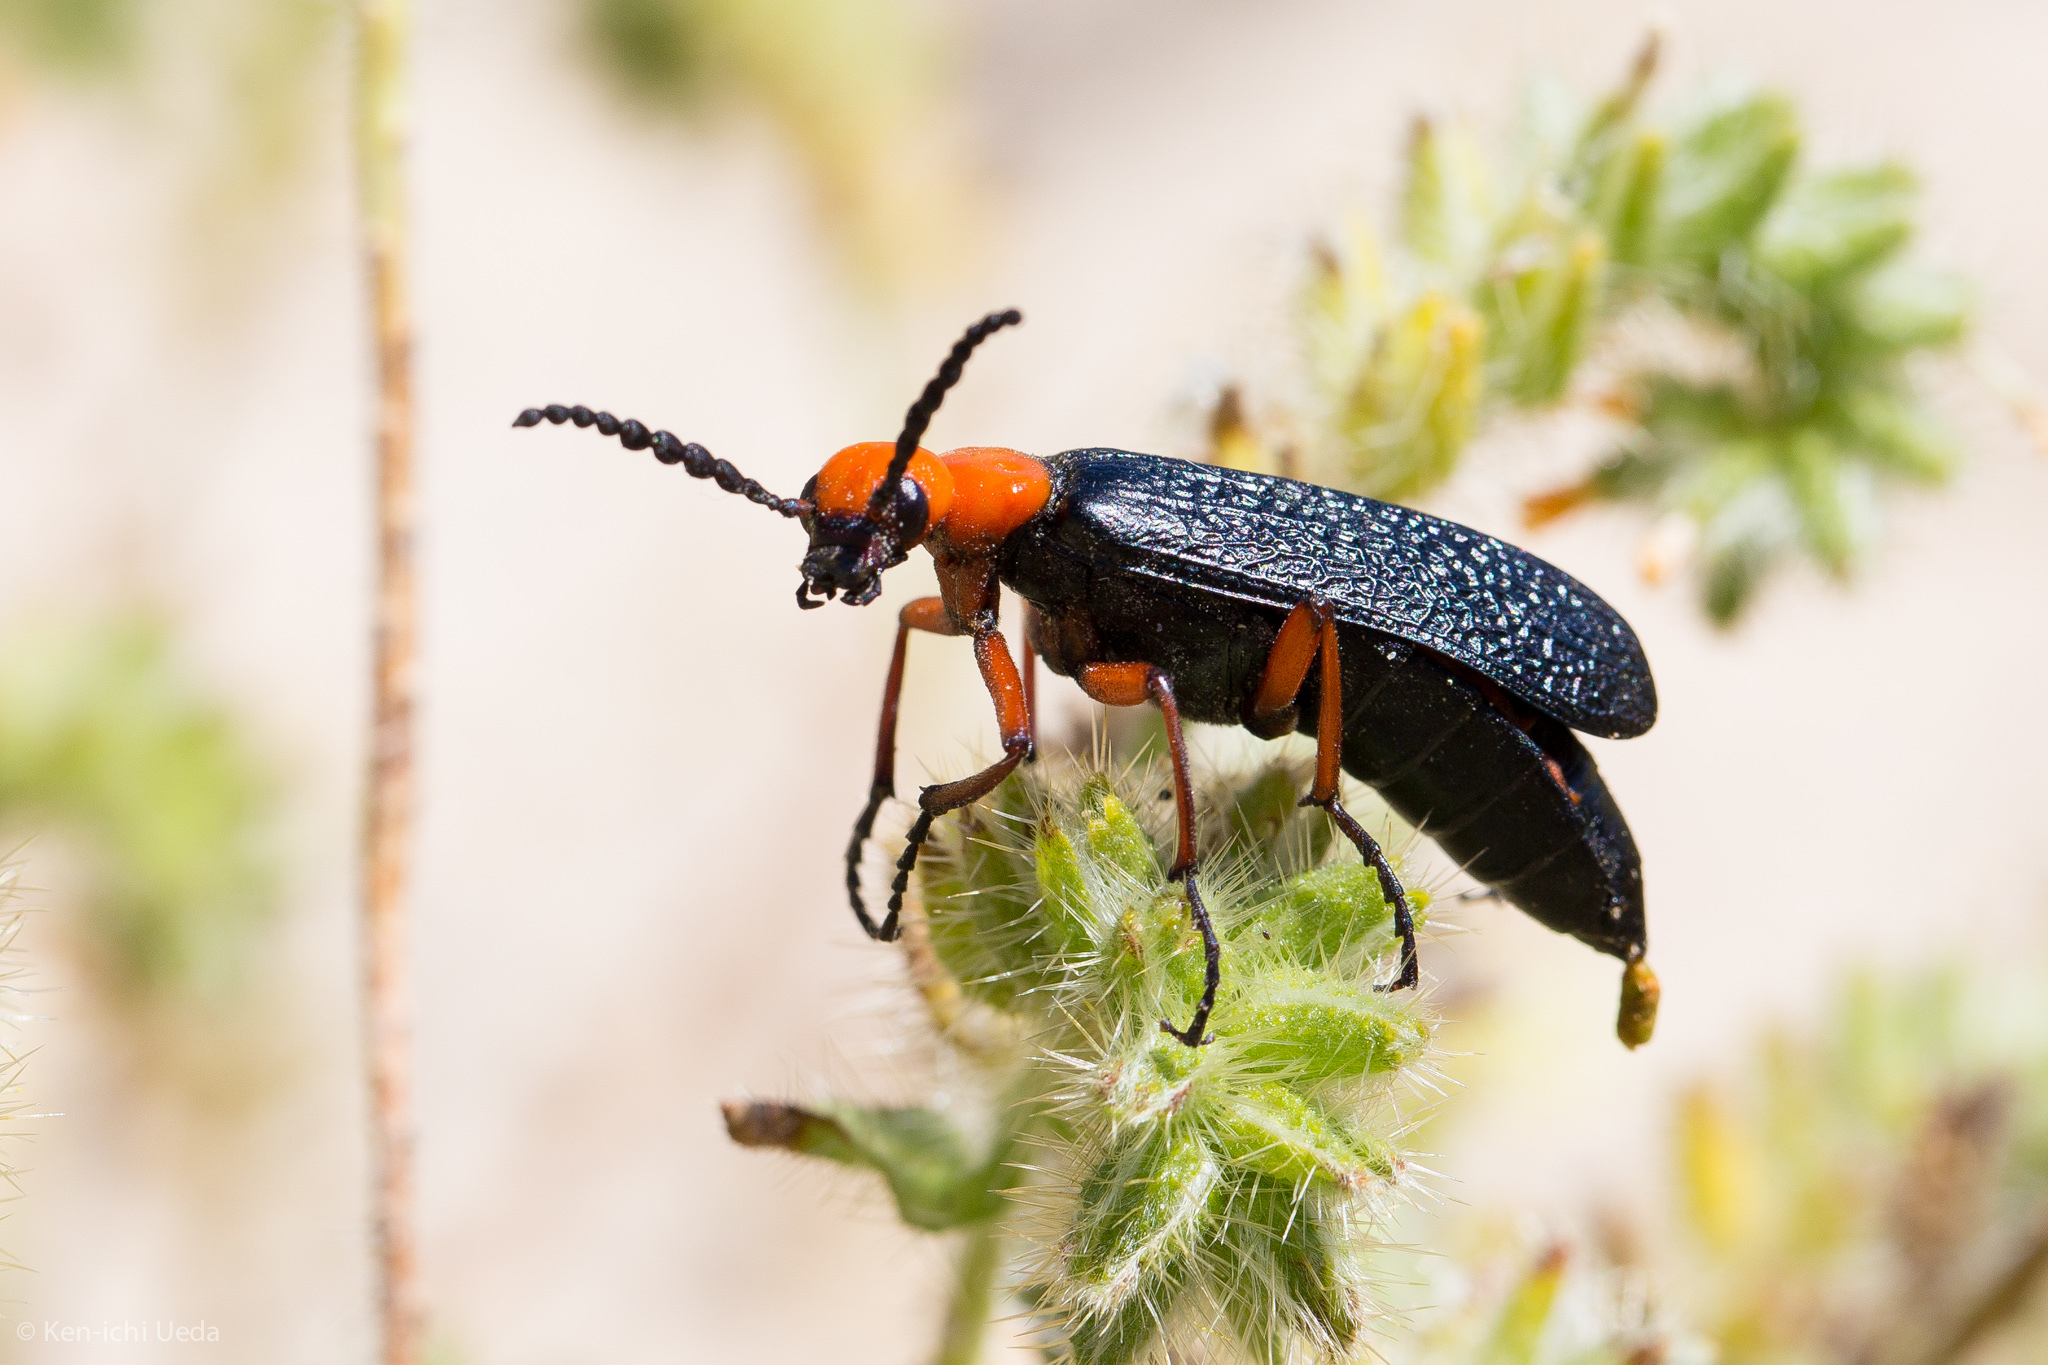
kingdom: Animalia
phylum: Arthropoda
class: Insecta
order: Coleoptera
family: Meloidae
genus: Lytta
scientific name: Lytta magister
